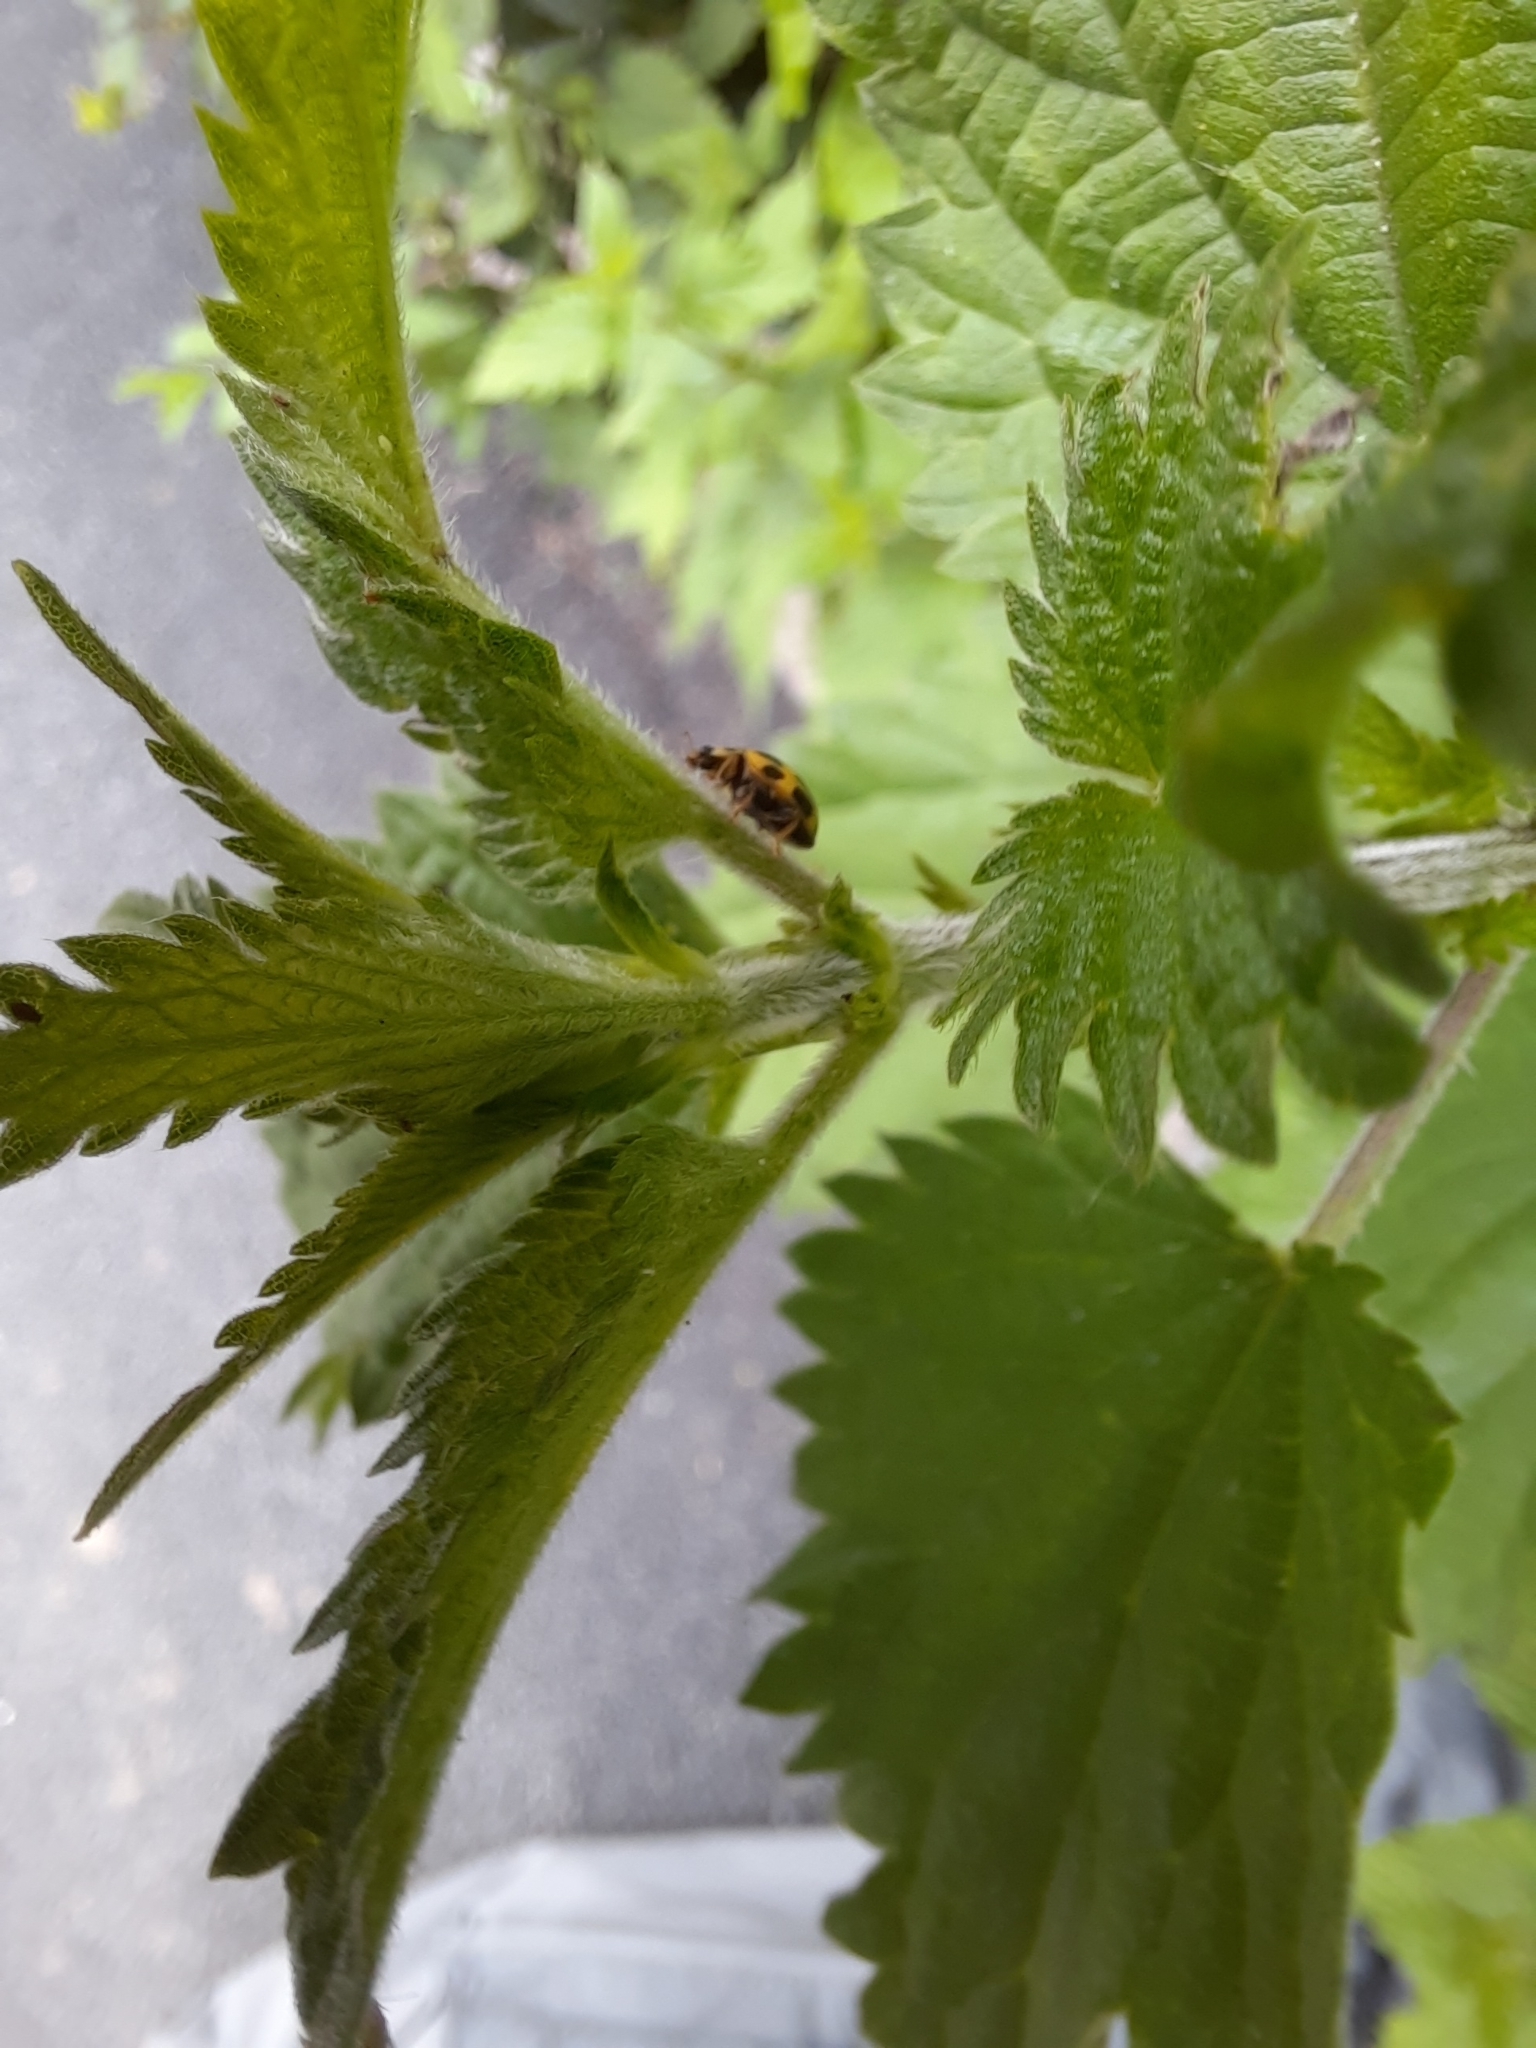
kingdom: Animalia
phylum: Arthropoda
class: Insecta
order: Coleoptera
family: Coccinellidae
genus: Propylaea
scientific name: Propylaea quatuordecimpunctata
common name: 14-spotted ladybird beetle
